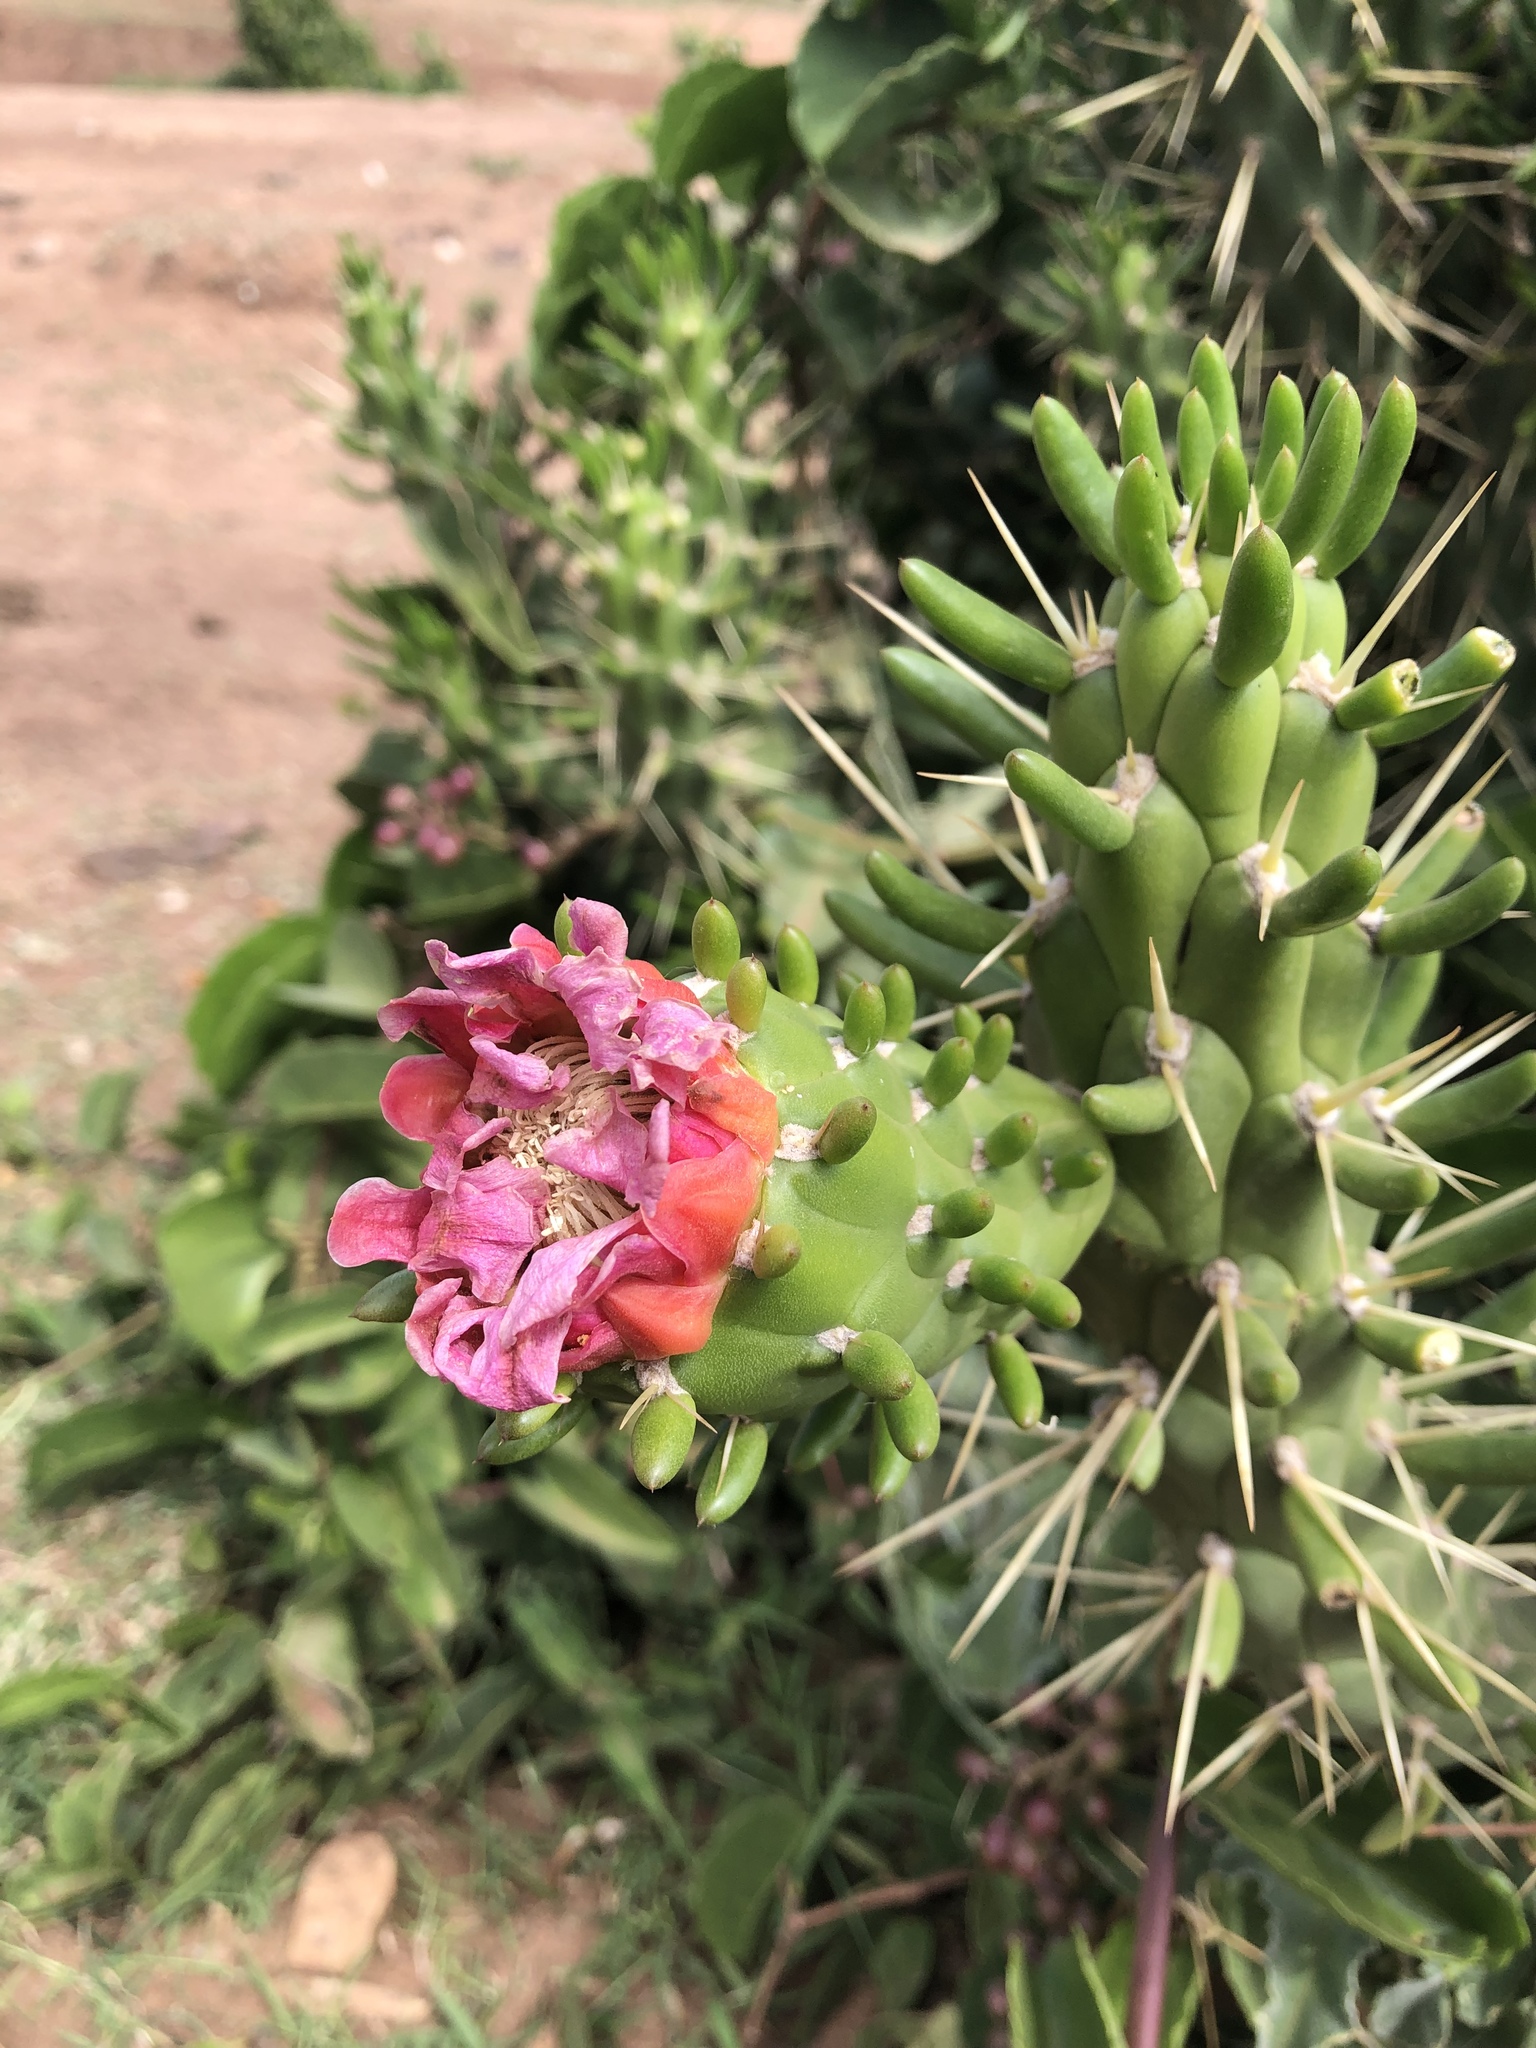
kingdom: Plantae
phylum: Tracheophyta
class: Magnoliopsida
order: Caryophyllales
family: Cactaceae
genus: Austrocylindropuntia
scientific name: Austrocylindropuntia subulata
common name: Eve's needle cactus
